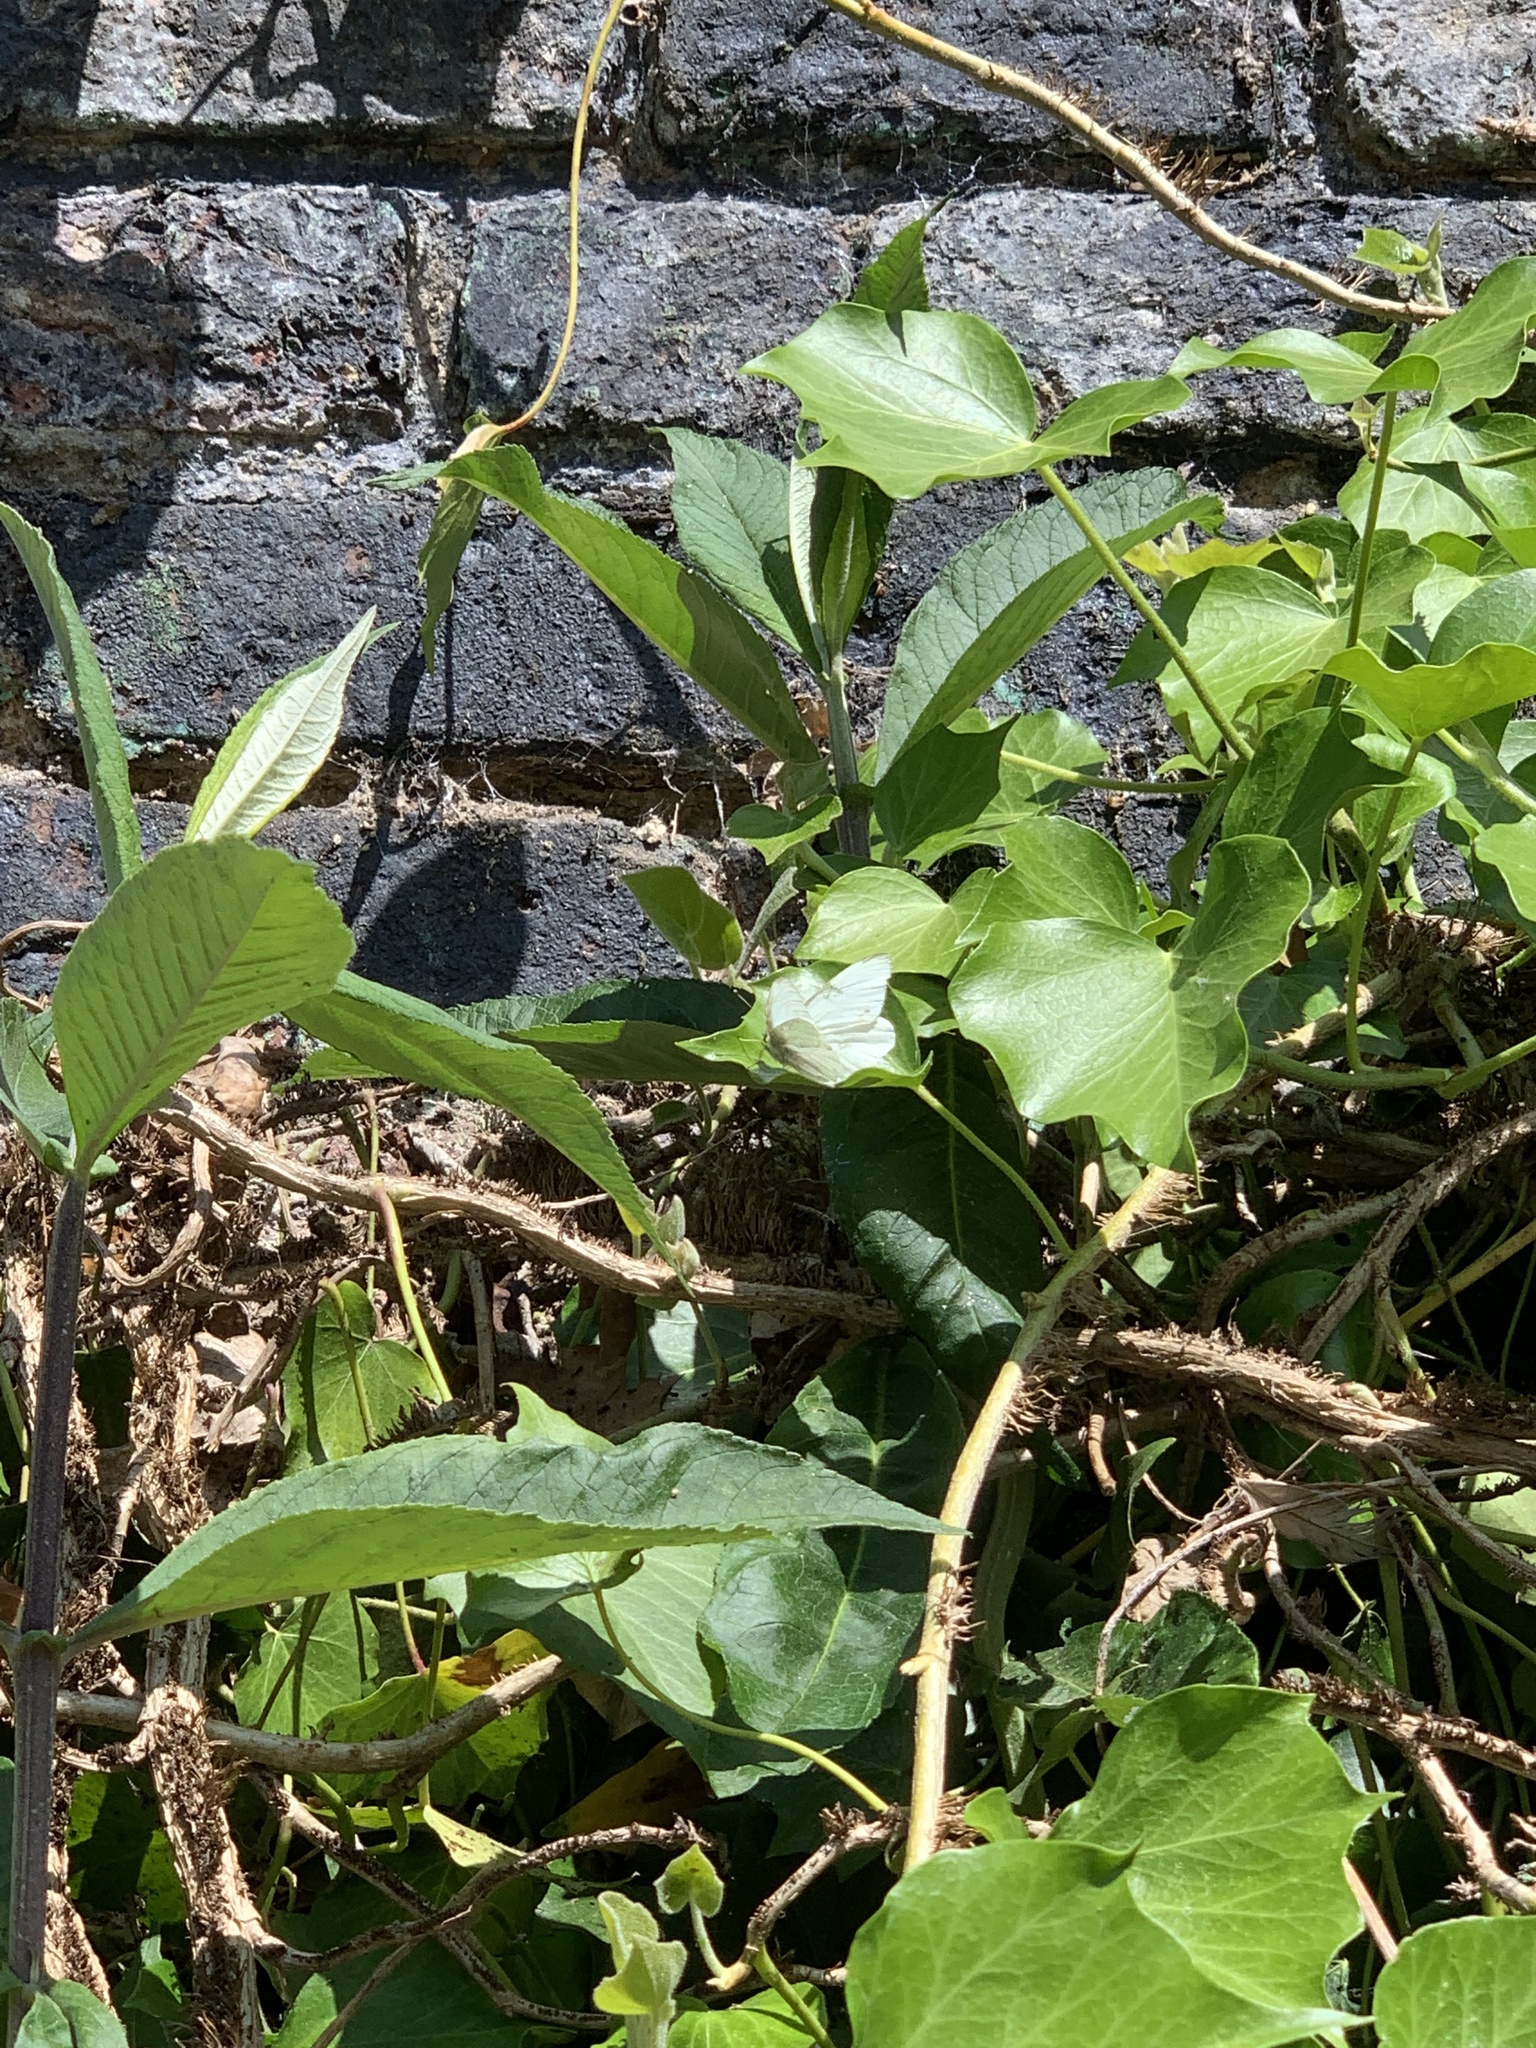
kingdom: Animalia
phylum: Arthropoda
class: Insecta
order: Lepidoptera
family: Pieridae
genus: Pieris
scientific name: Pieris rapae
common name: Small white
